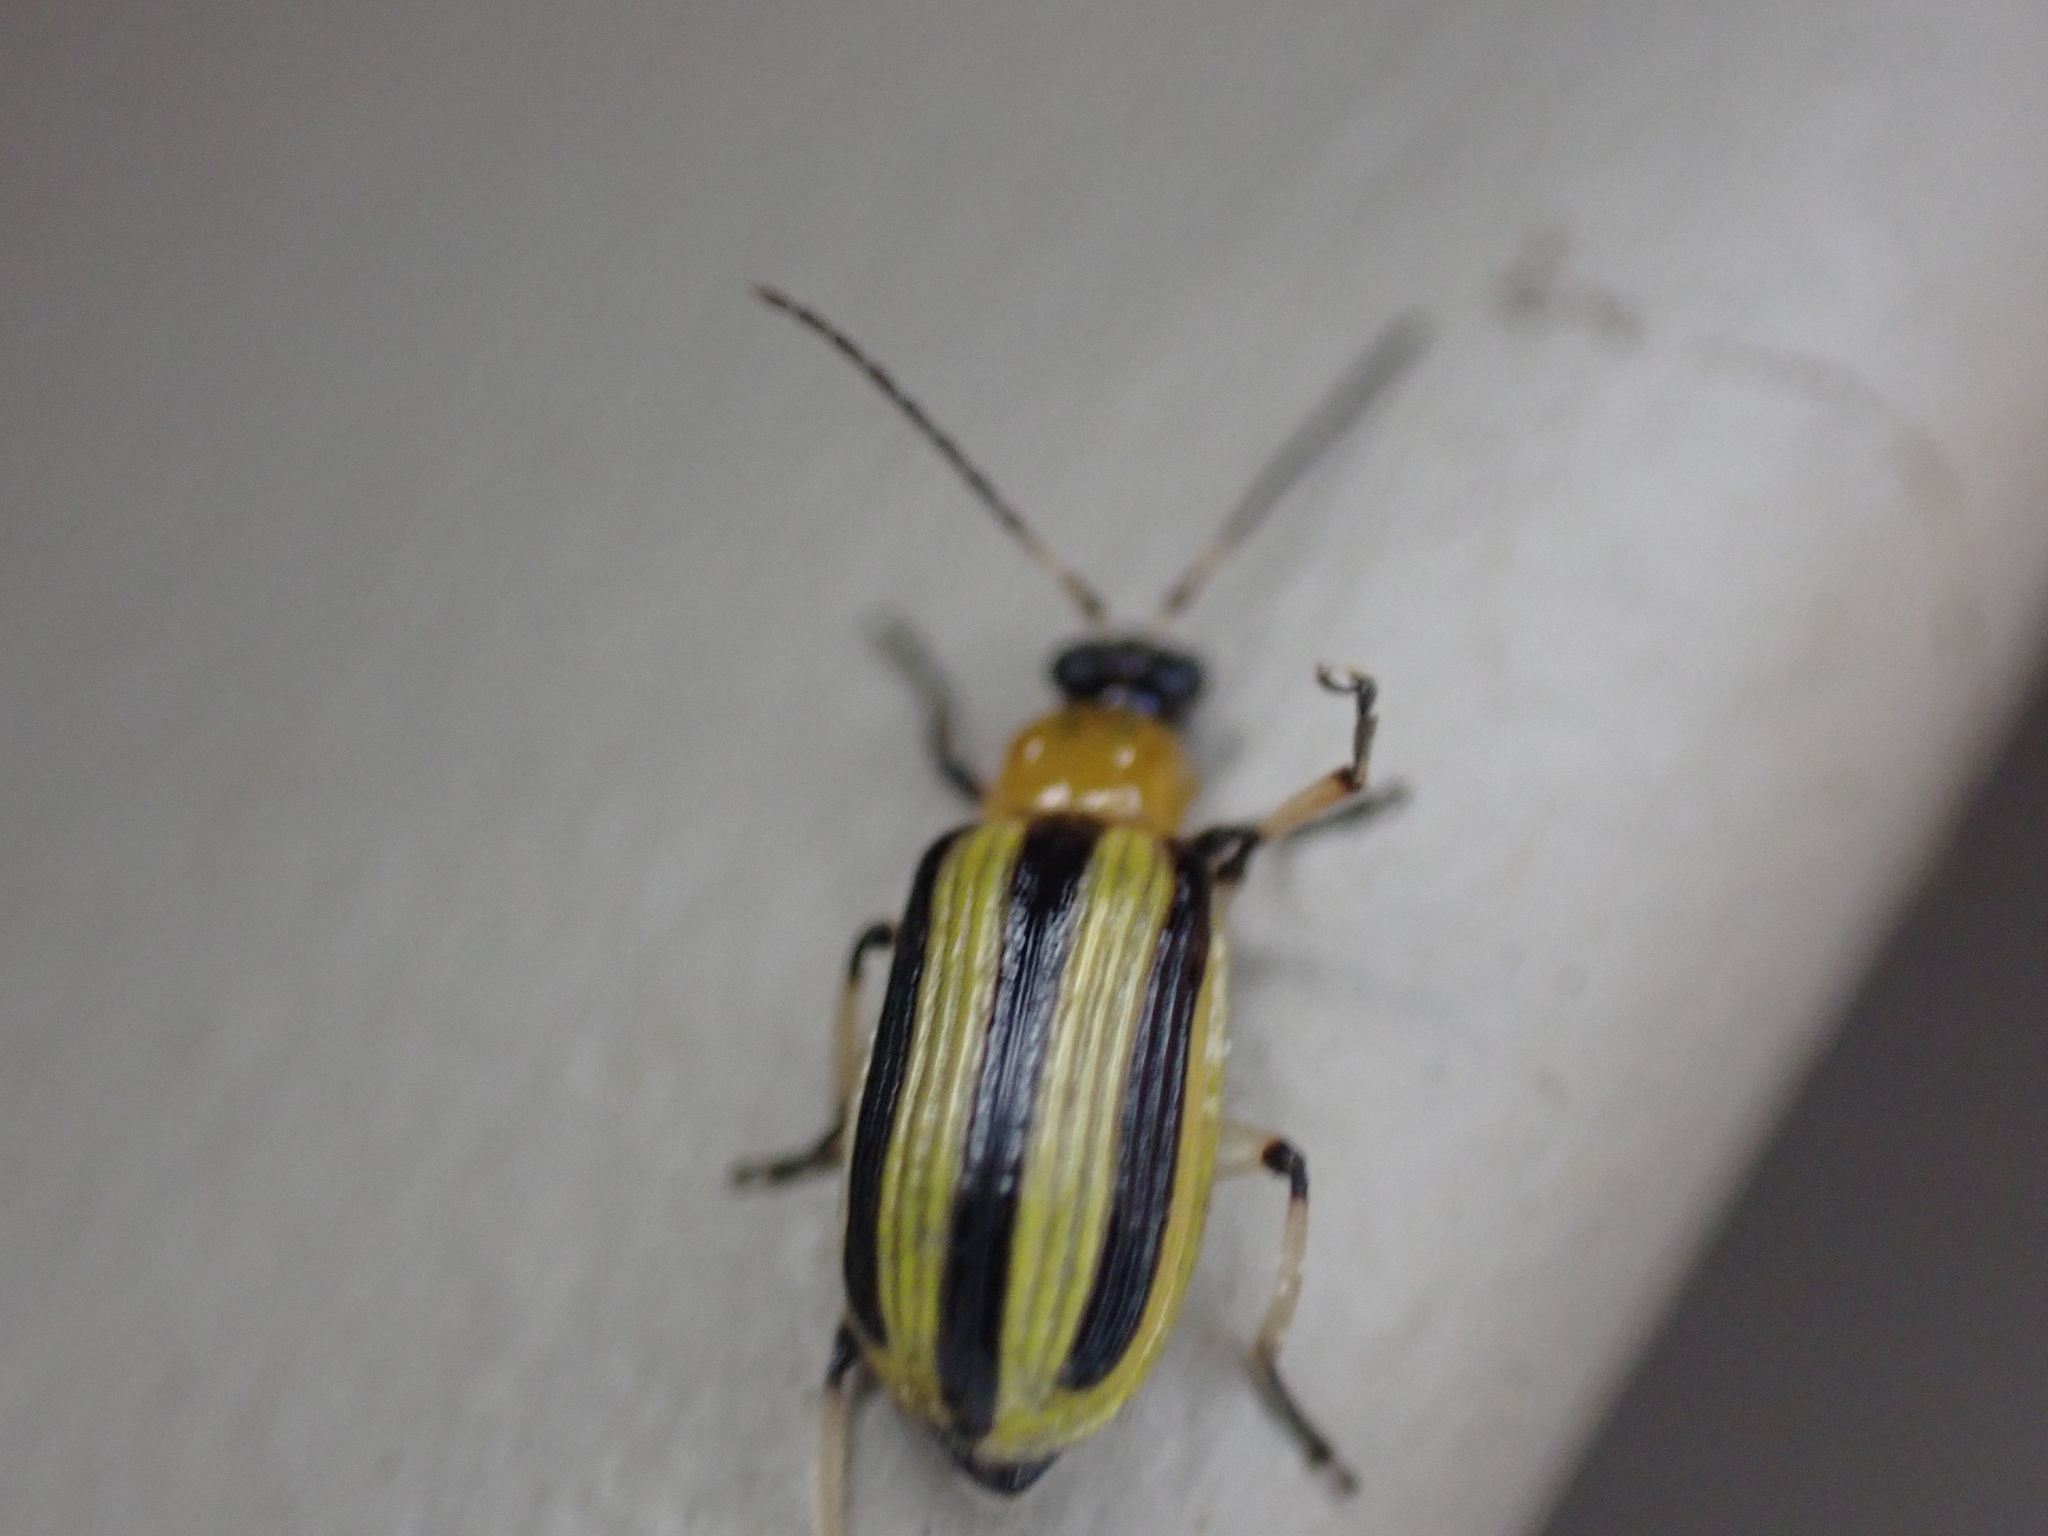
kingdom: Animalia
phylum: Arthropoda
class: Insecta
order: Coleoptera
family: Chrysomelidae
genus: Acalymma
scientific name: Acalymma vittatum
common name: Striped cucumber beetle
